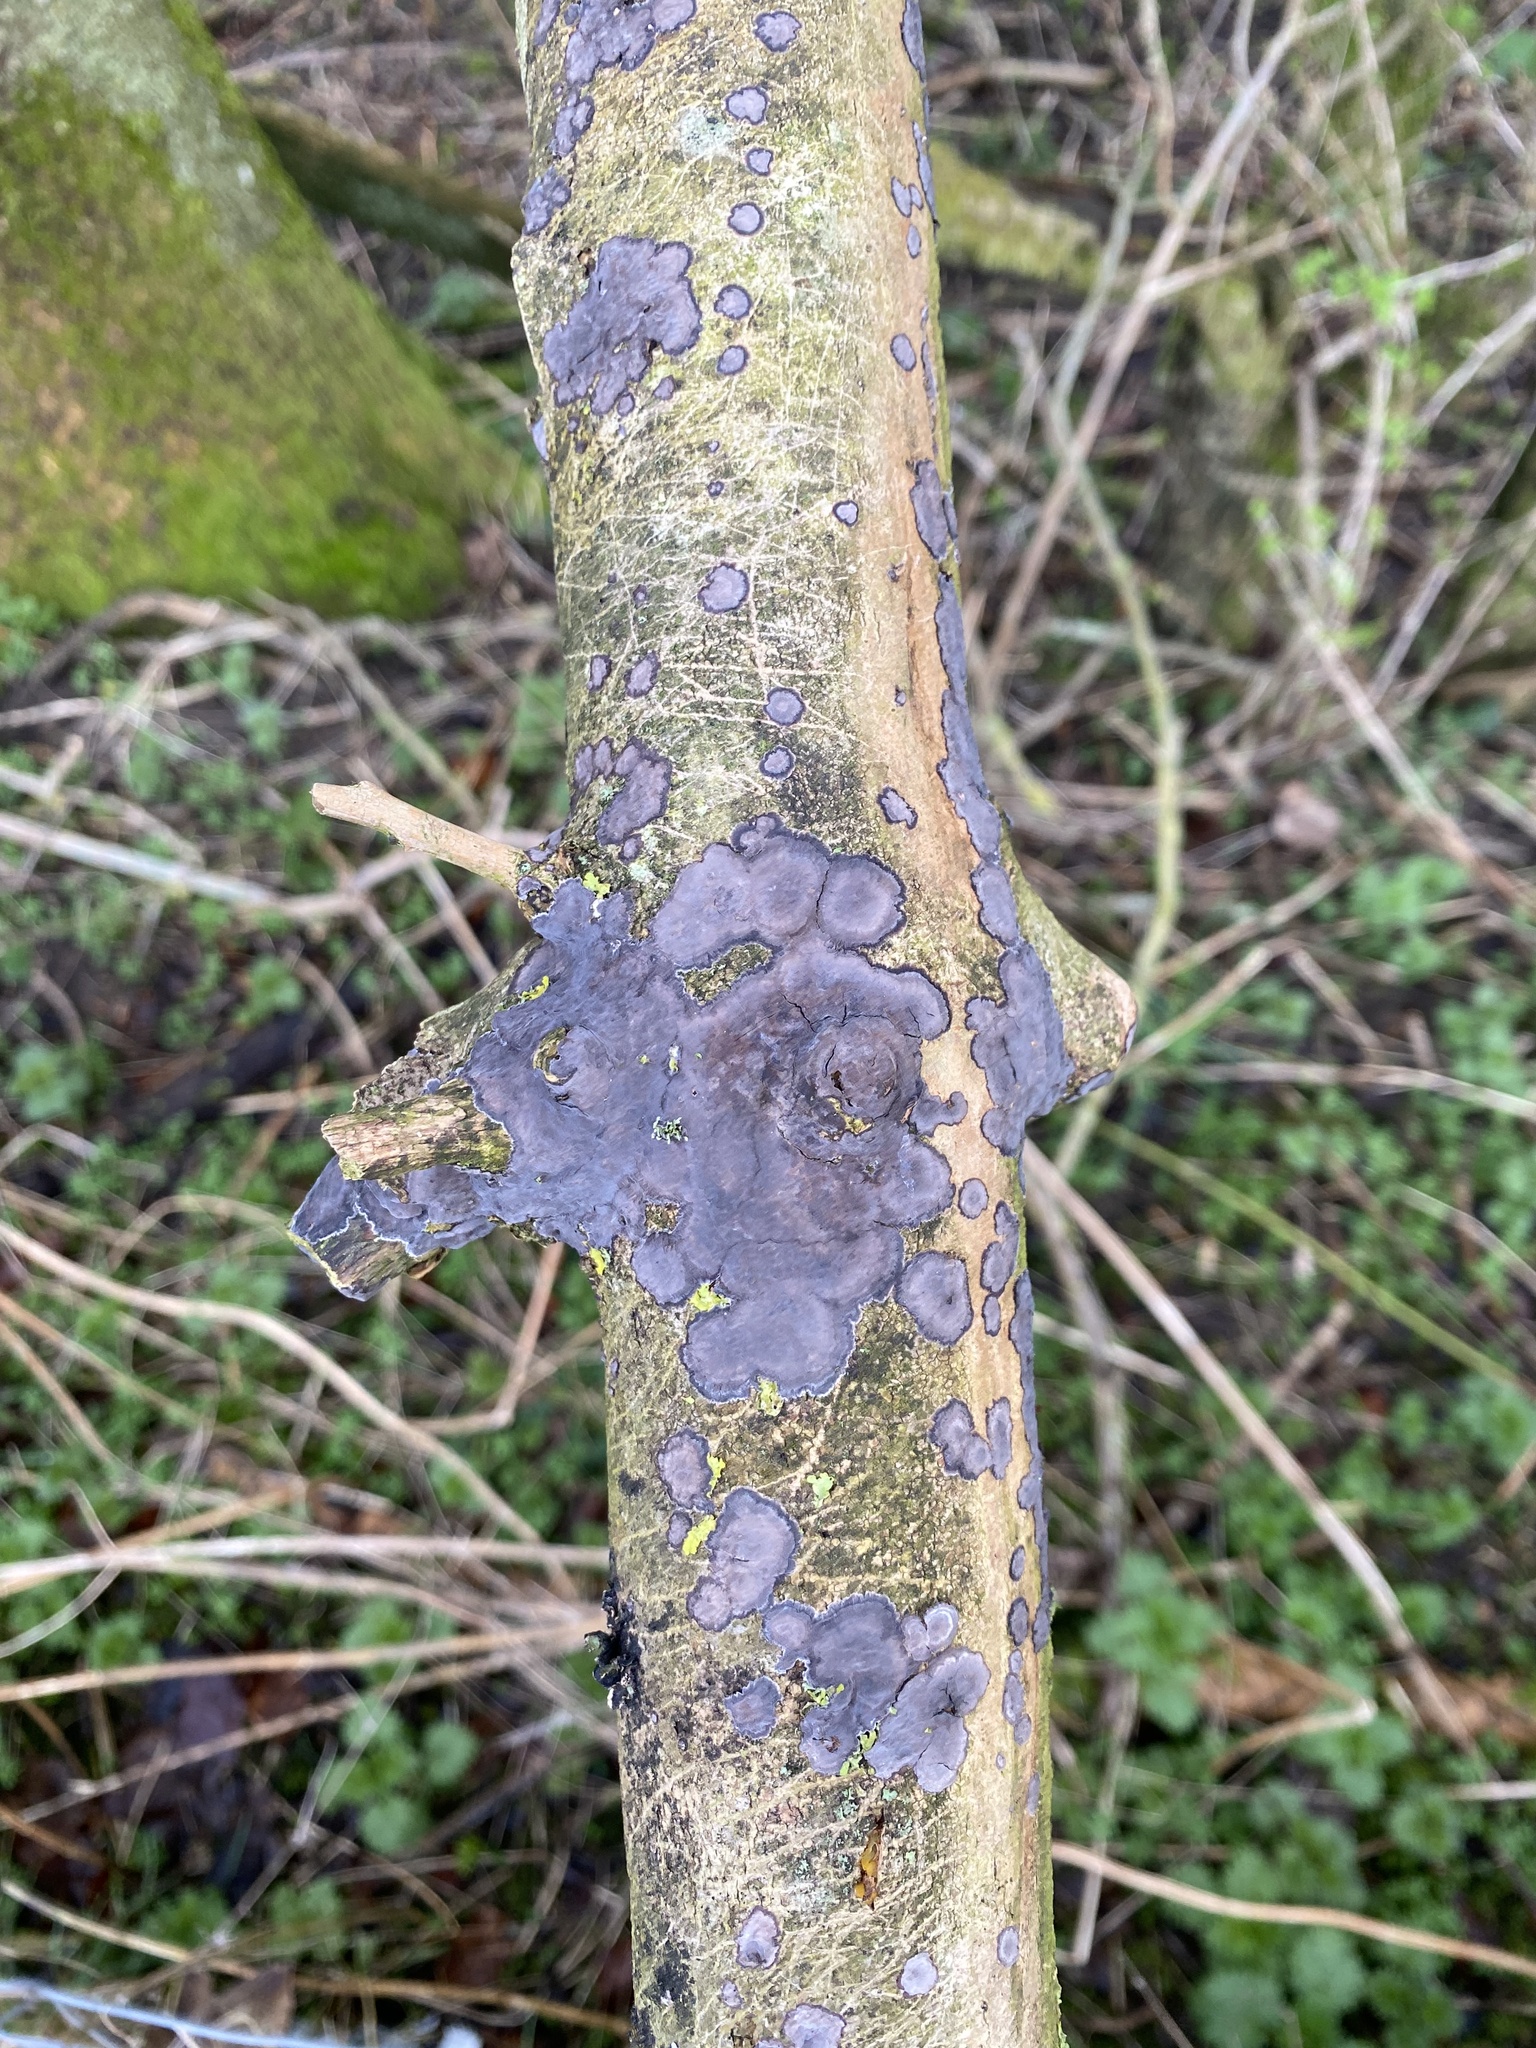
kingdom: Fungi
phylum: Basidiomycota
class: Agaricomycetes
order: Polyporales
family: Phanerochaetaceae
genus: Terana
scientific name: Terana coerulea
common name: Cobalt crust
